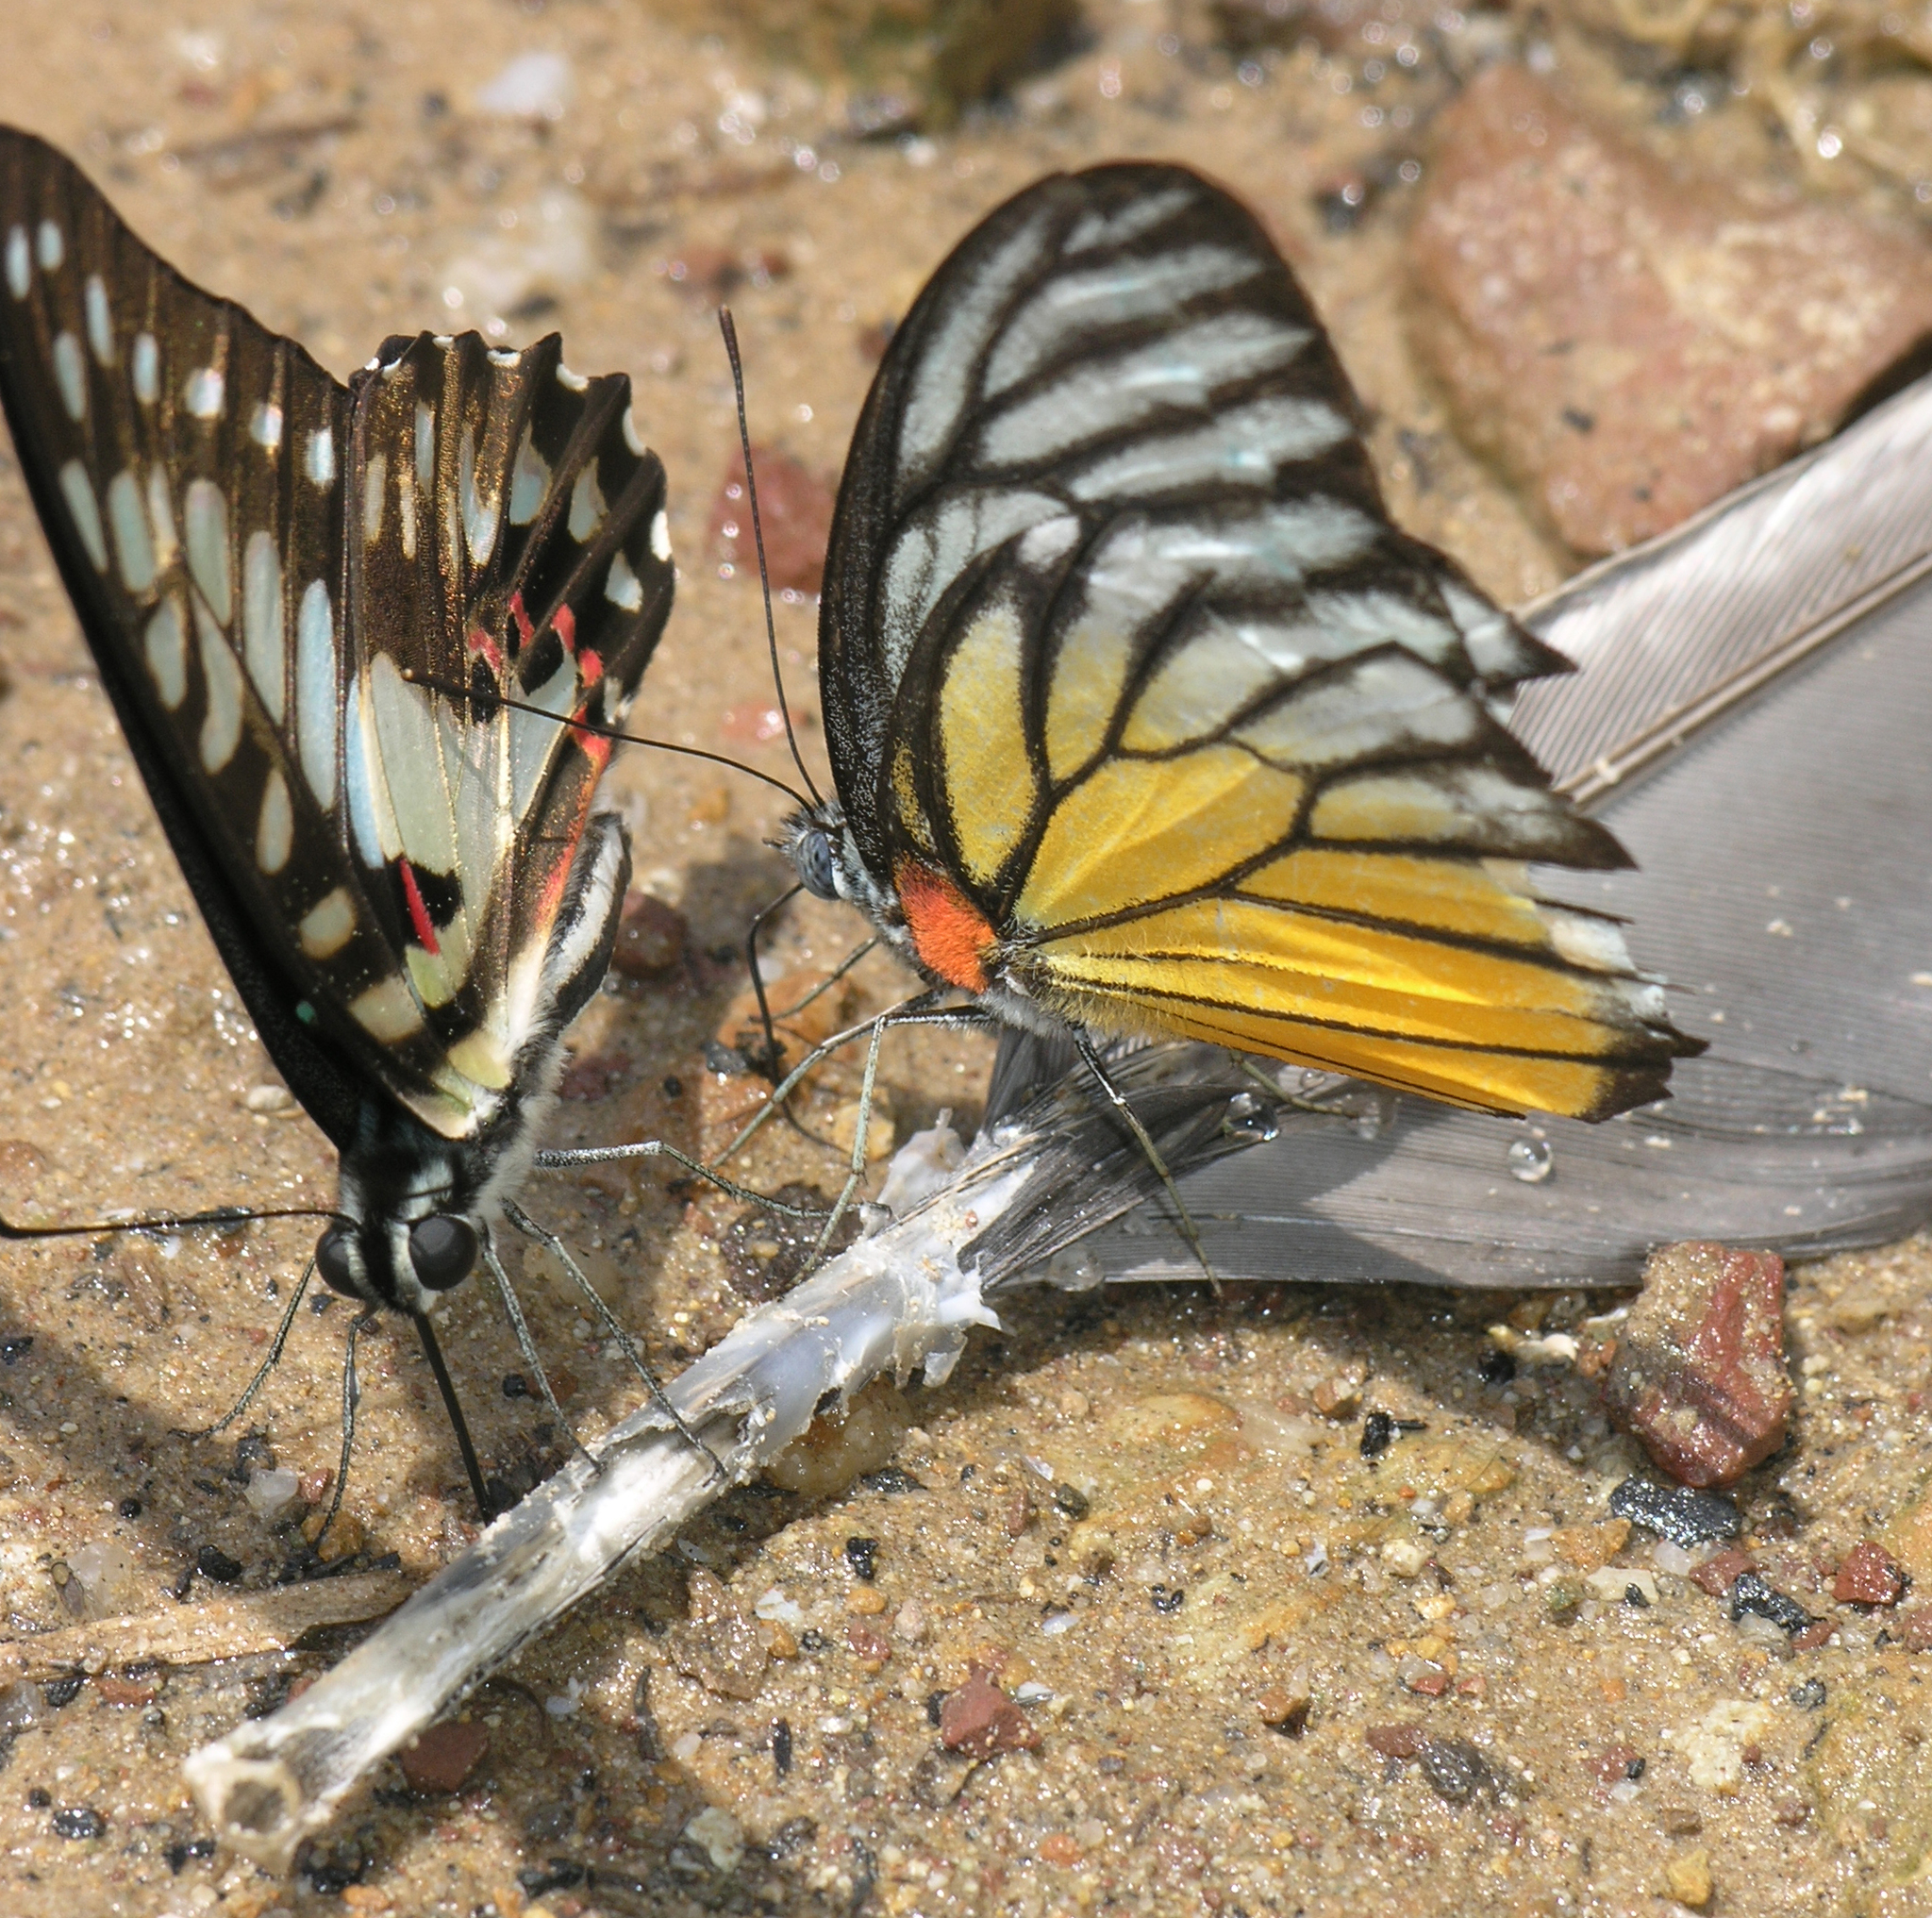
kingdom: Animalia
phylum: Arthropoda
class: Insecta
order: Lepidoptera
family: Pieridae
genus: Prioneris
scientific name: Prioneris
